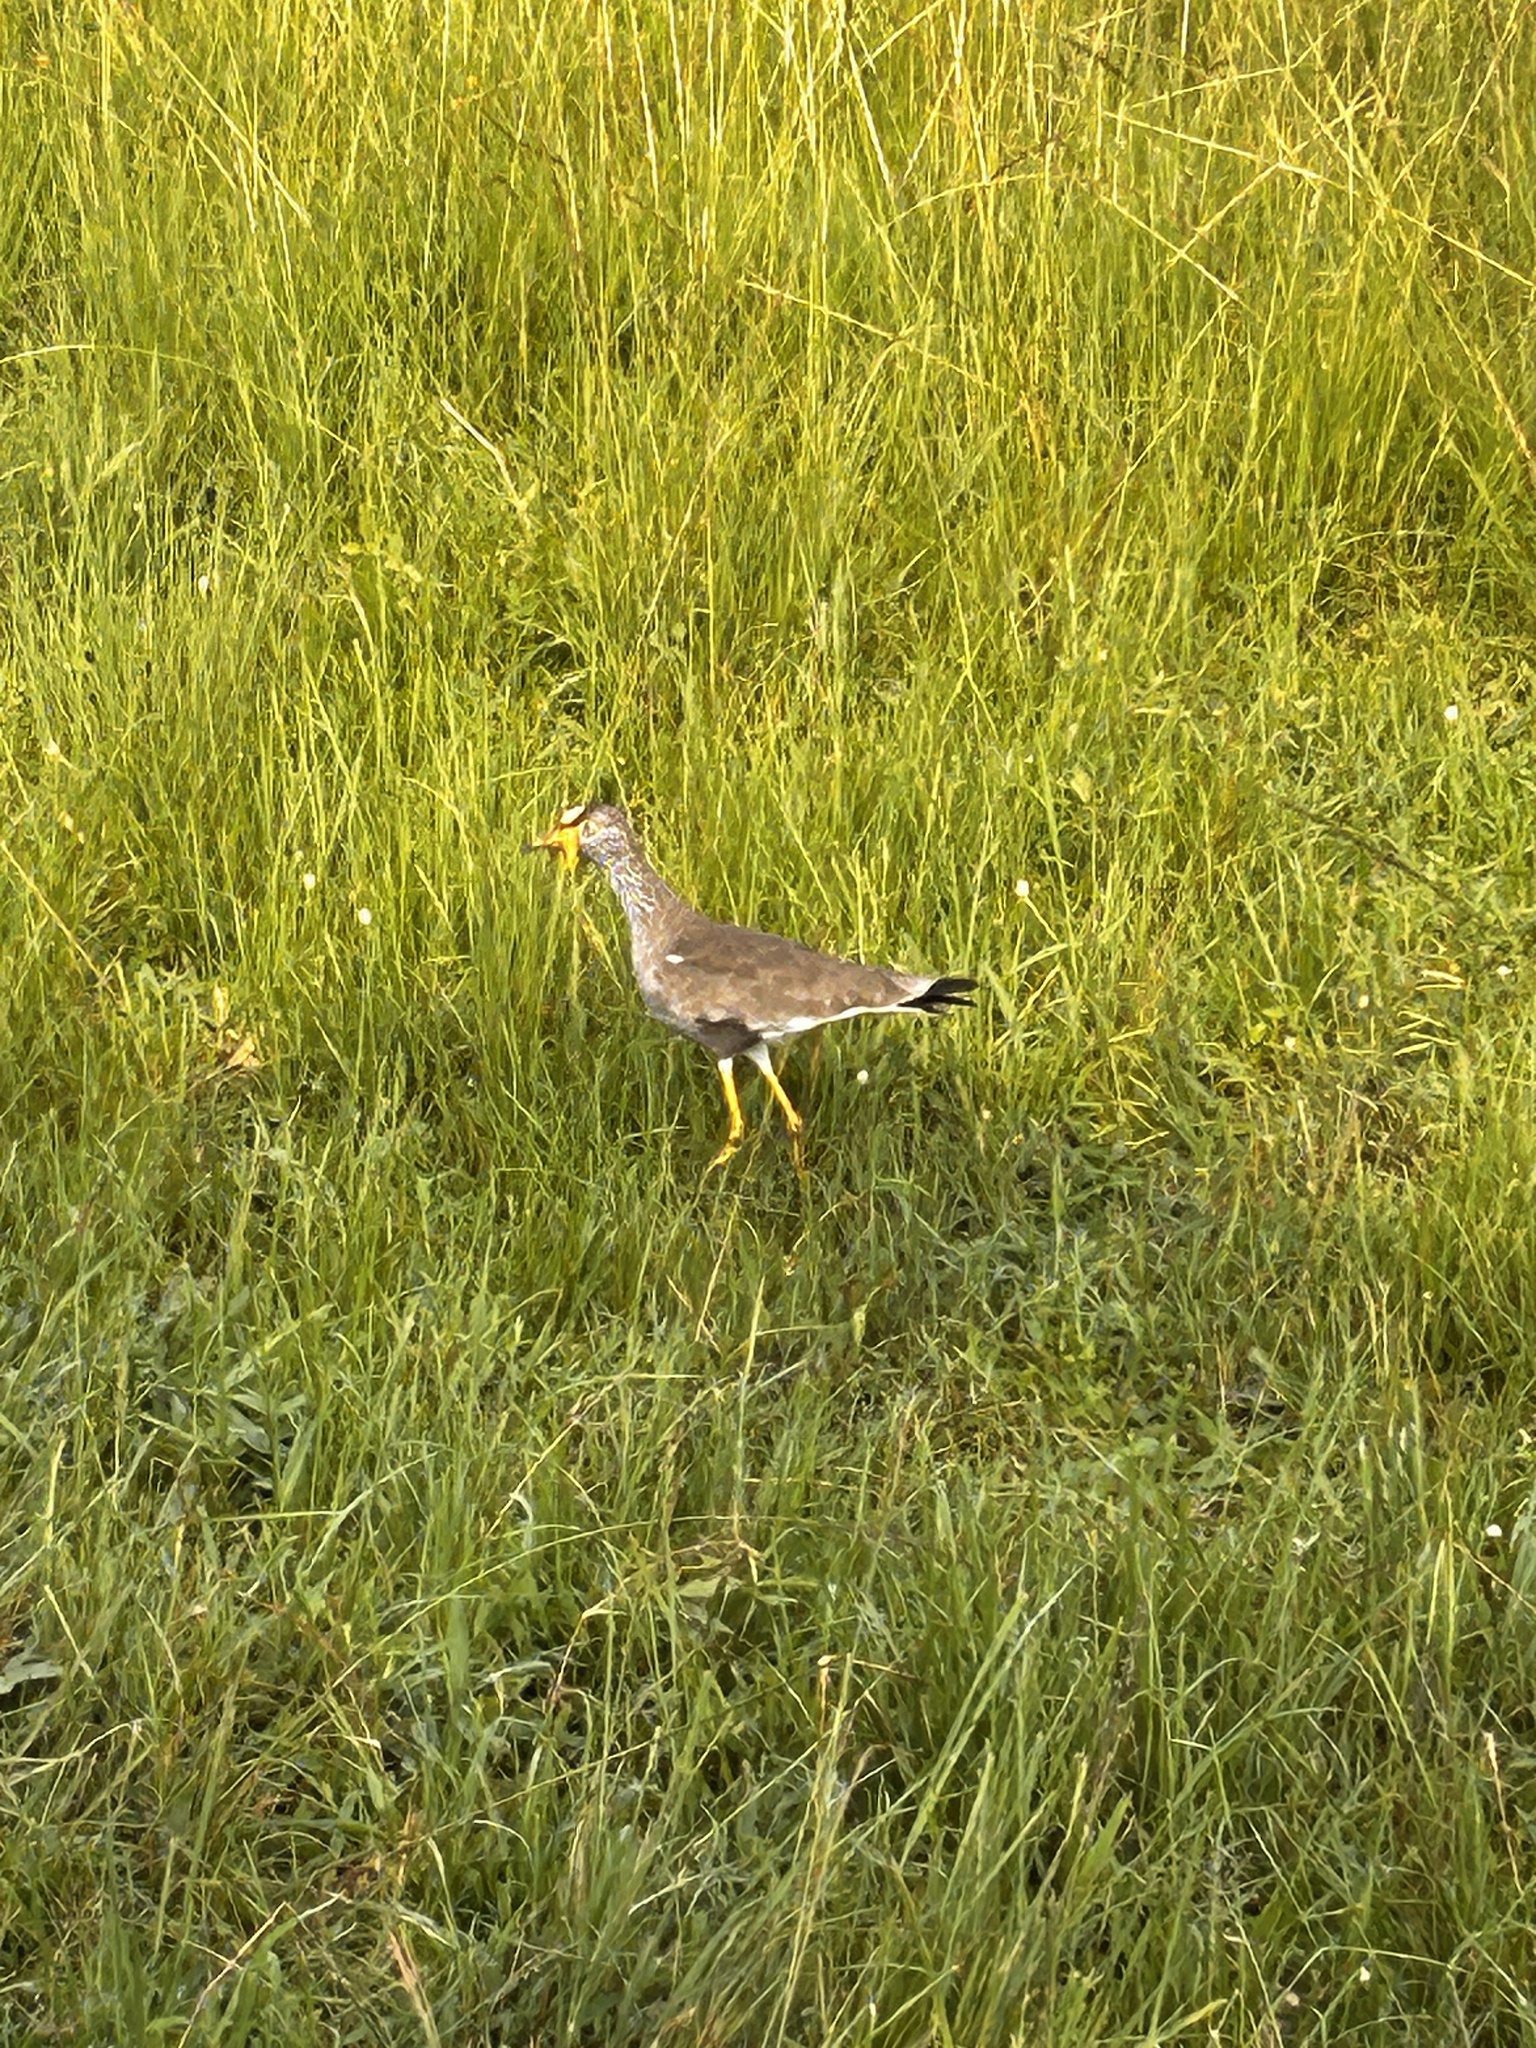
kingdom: Animalia
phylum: Chordata
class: Aves
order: Charadriiformes
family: Charadriidae
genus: Vanellus
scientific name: Vanellus senegallus
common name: African wattled lapwing
